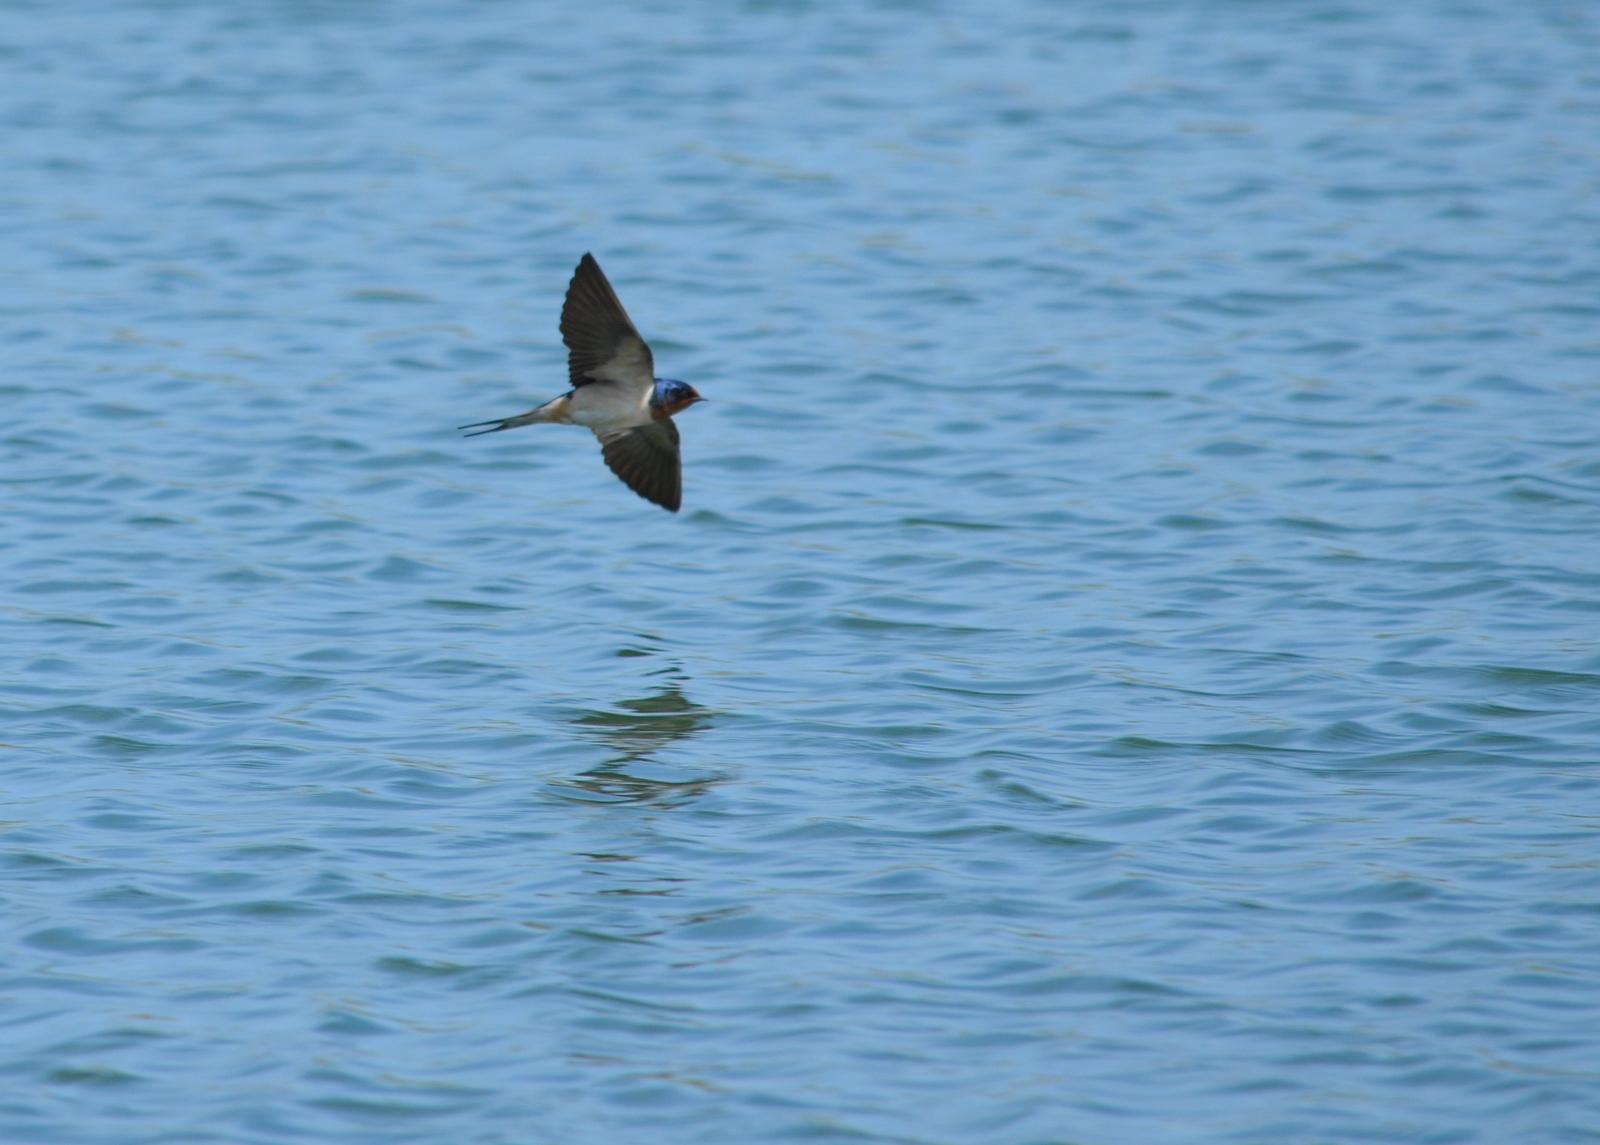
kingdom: Animalia
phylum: Chordata
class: Aves
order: Passeriformes
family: Hirundinidae
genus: Hirundo
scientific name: Hirundo rustica
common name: Barn swallow
